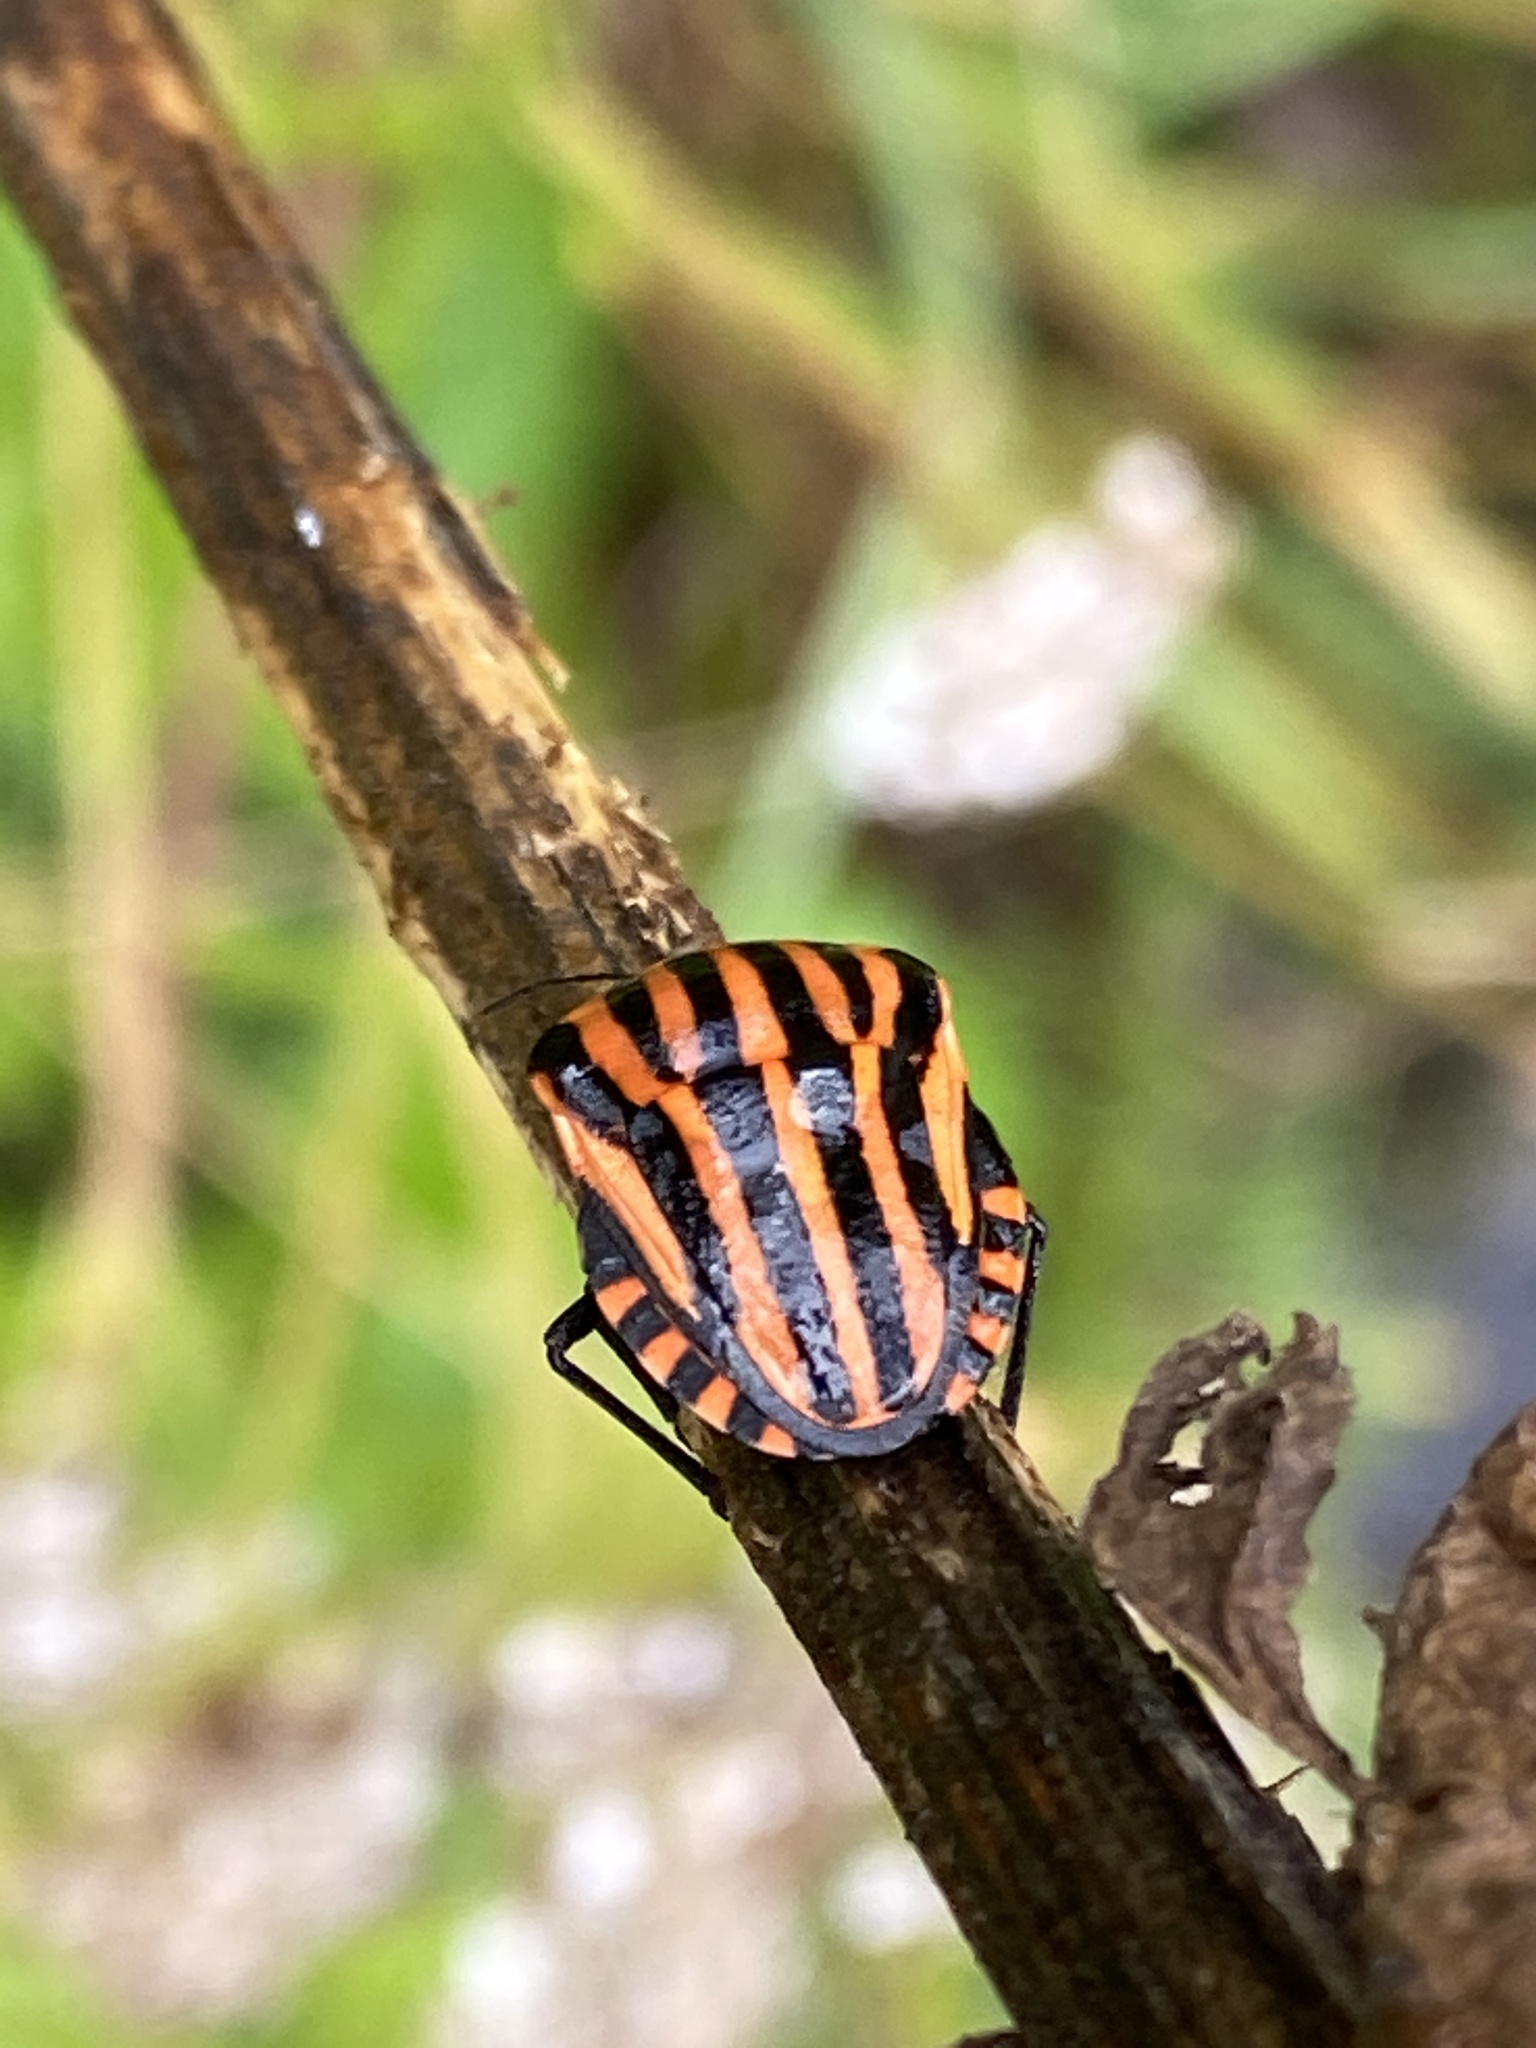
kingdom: Animalia
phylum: Arthropoda
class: Insecta
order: Hemiptera
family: Pentatomidae
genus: Graphosoma
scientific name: Graphosoma italicum
